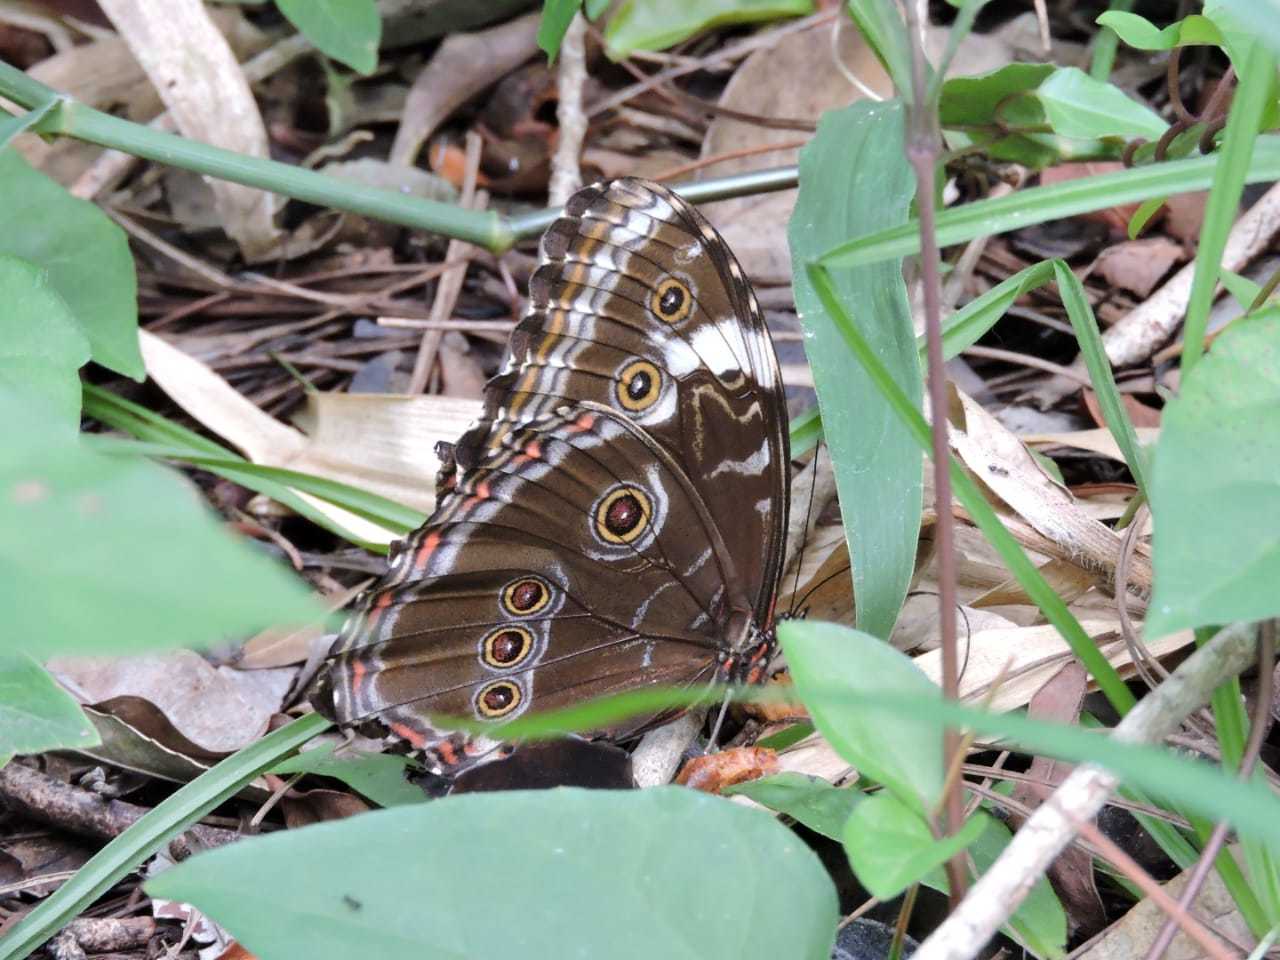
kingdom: Animalia
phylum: Arthropoda
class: Insecta
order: Lepidoptera
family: Nymphalidae
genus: Morpho
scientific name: Morpho helenor
